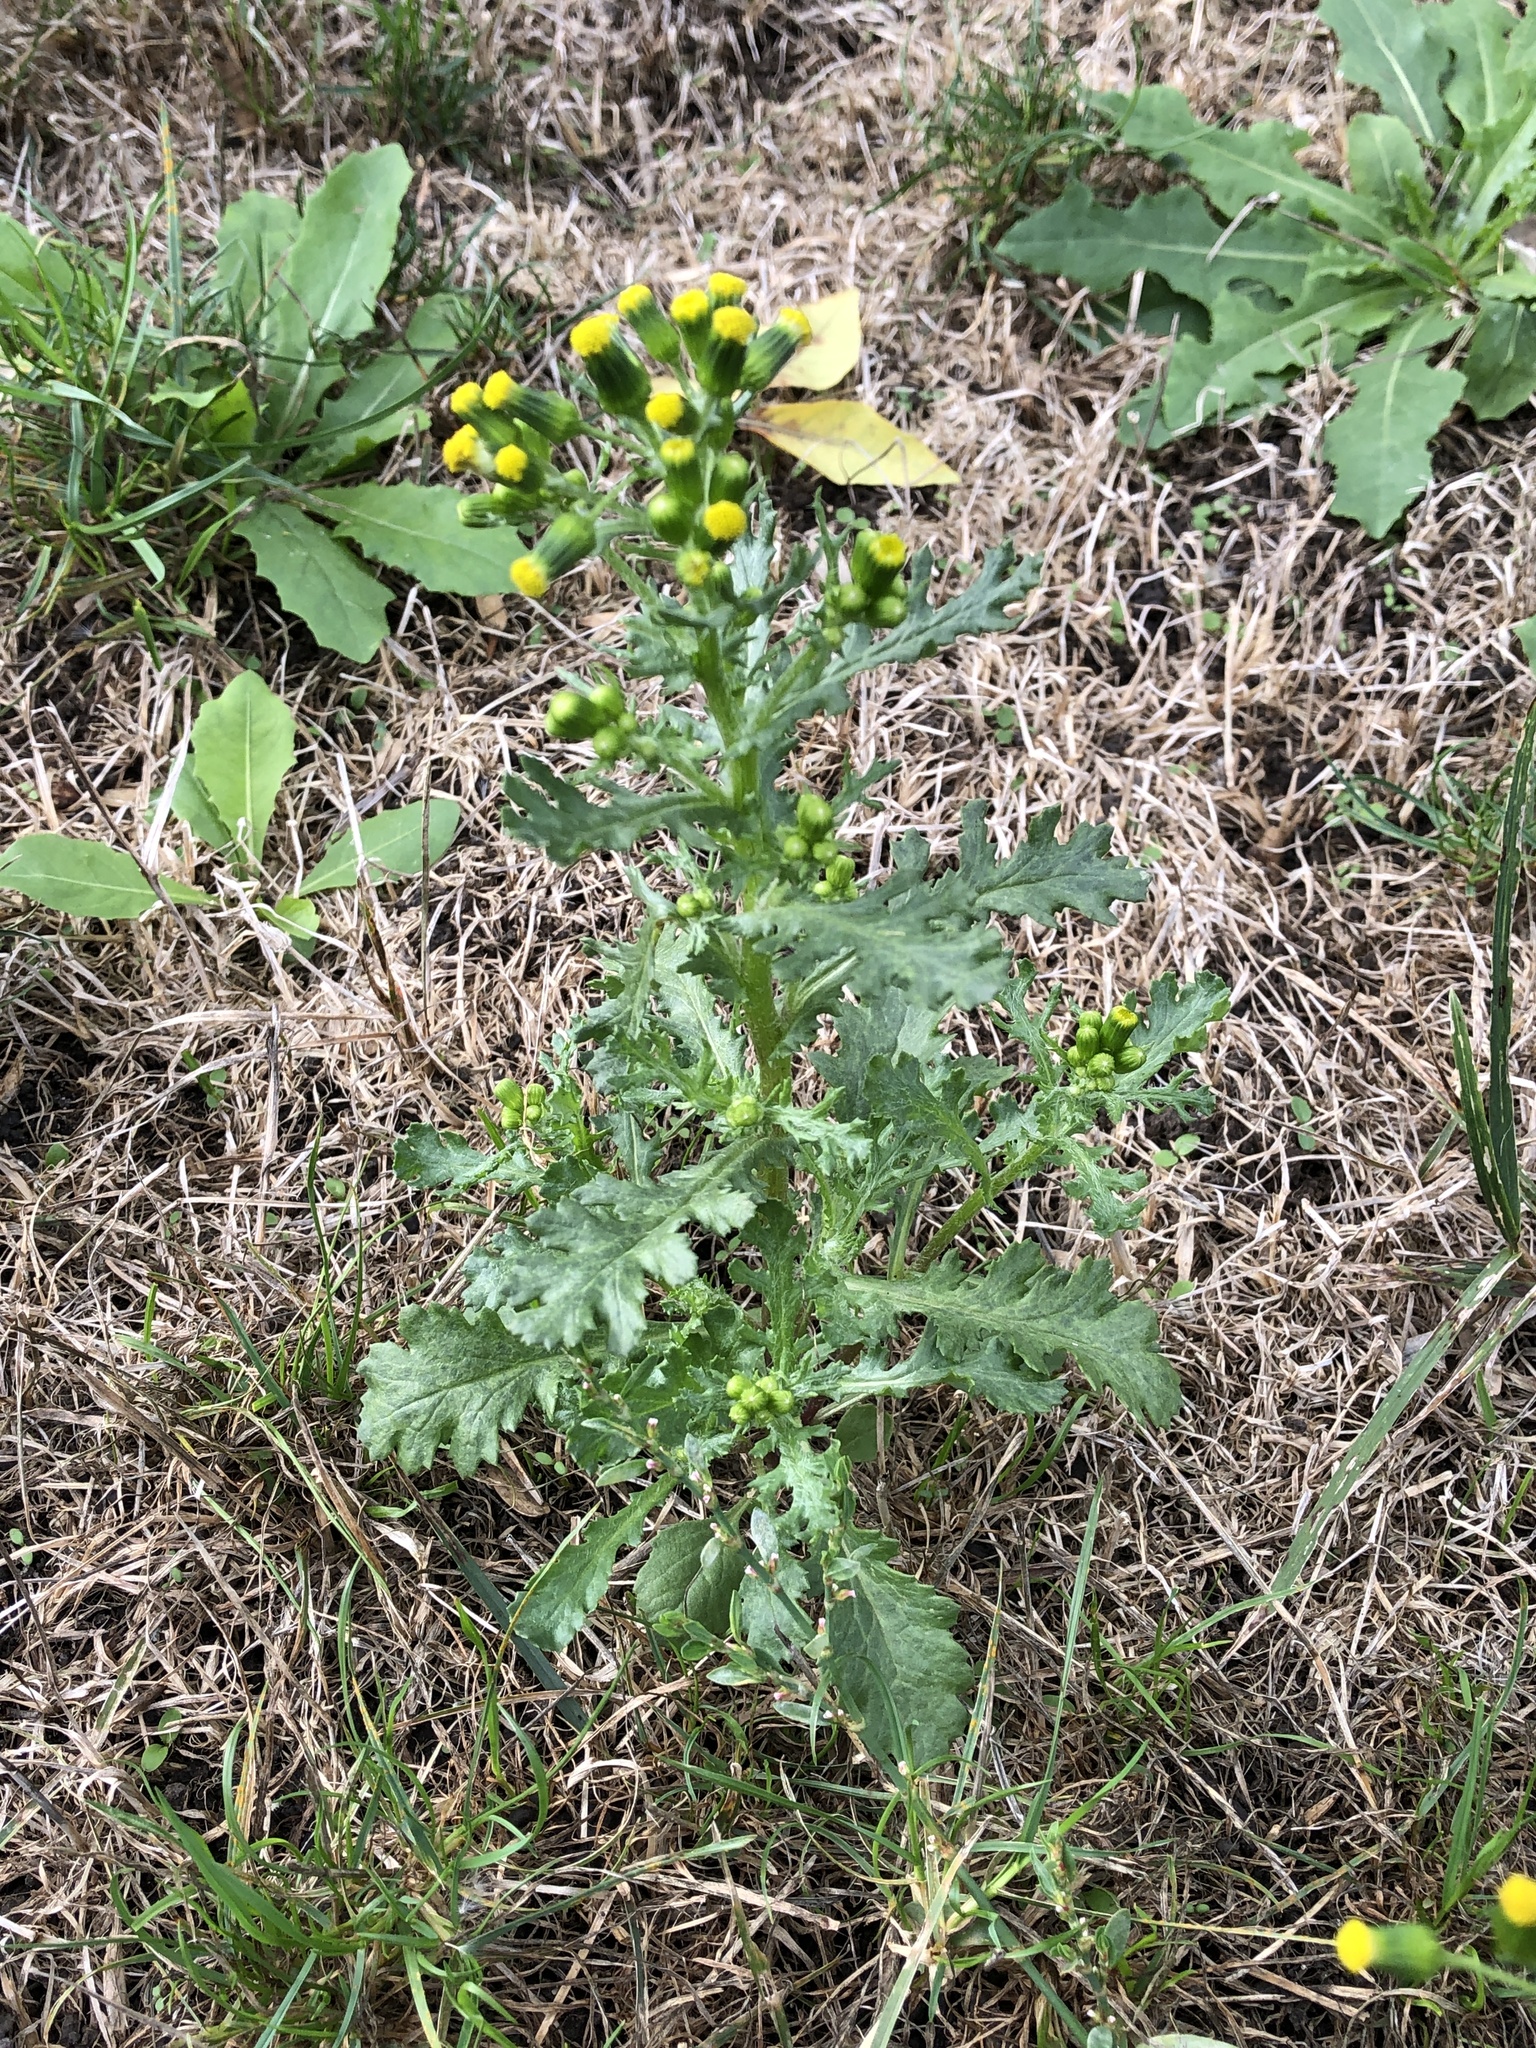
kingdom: Plantae
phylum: Tracheophyta
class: Magnoliopsida
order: Asterales
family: Asteraceae
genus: Senecio
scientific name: Senecio vulgaris
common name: Old-man-in-the-spring
